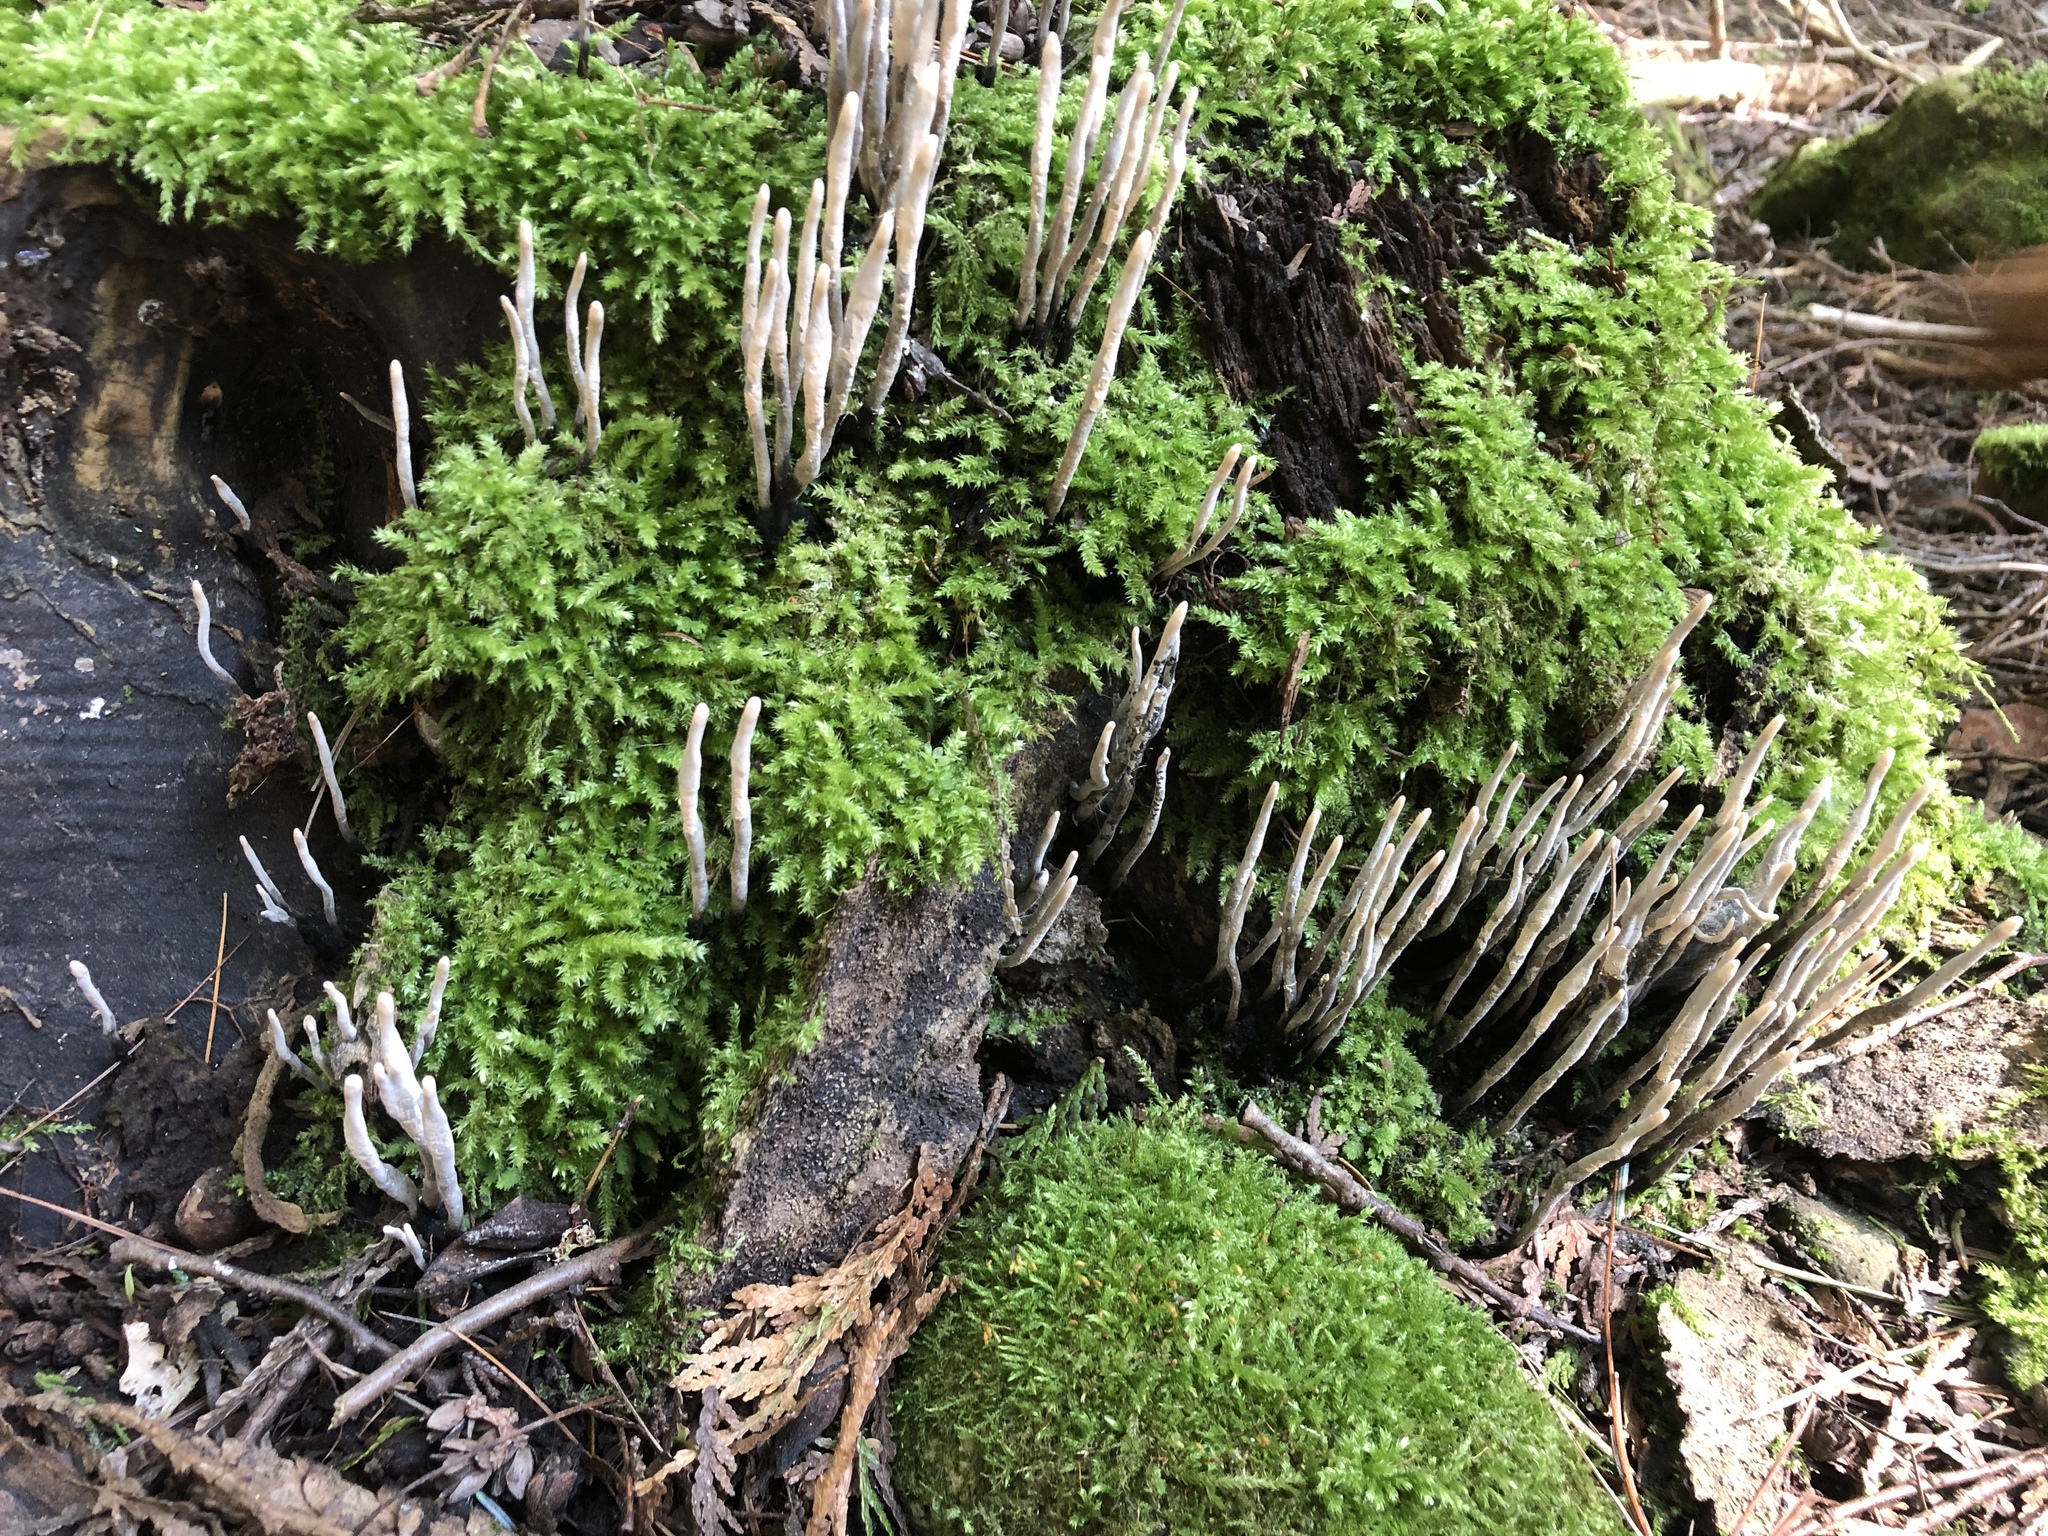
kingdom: Fungi
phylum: Ascomycota
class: Sordariomycetes
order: Xylariales
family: Xylariaceae
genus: Xylaria
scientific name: Xylaria hypoxylon
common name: Candle-snuff fungus
